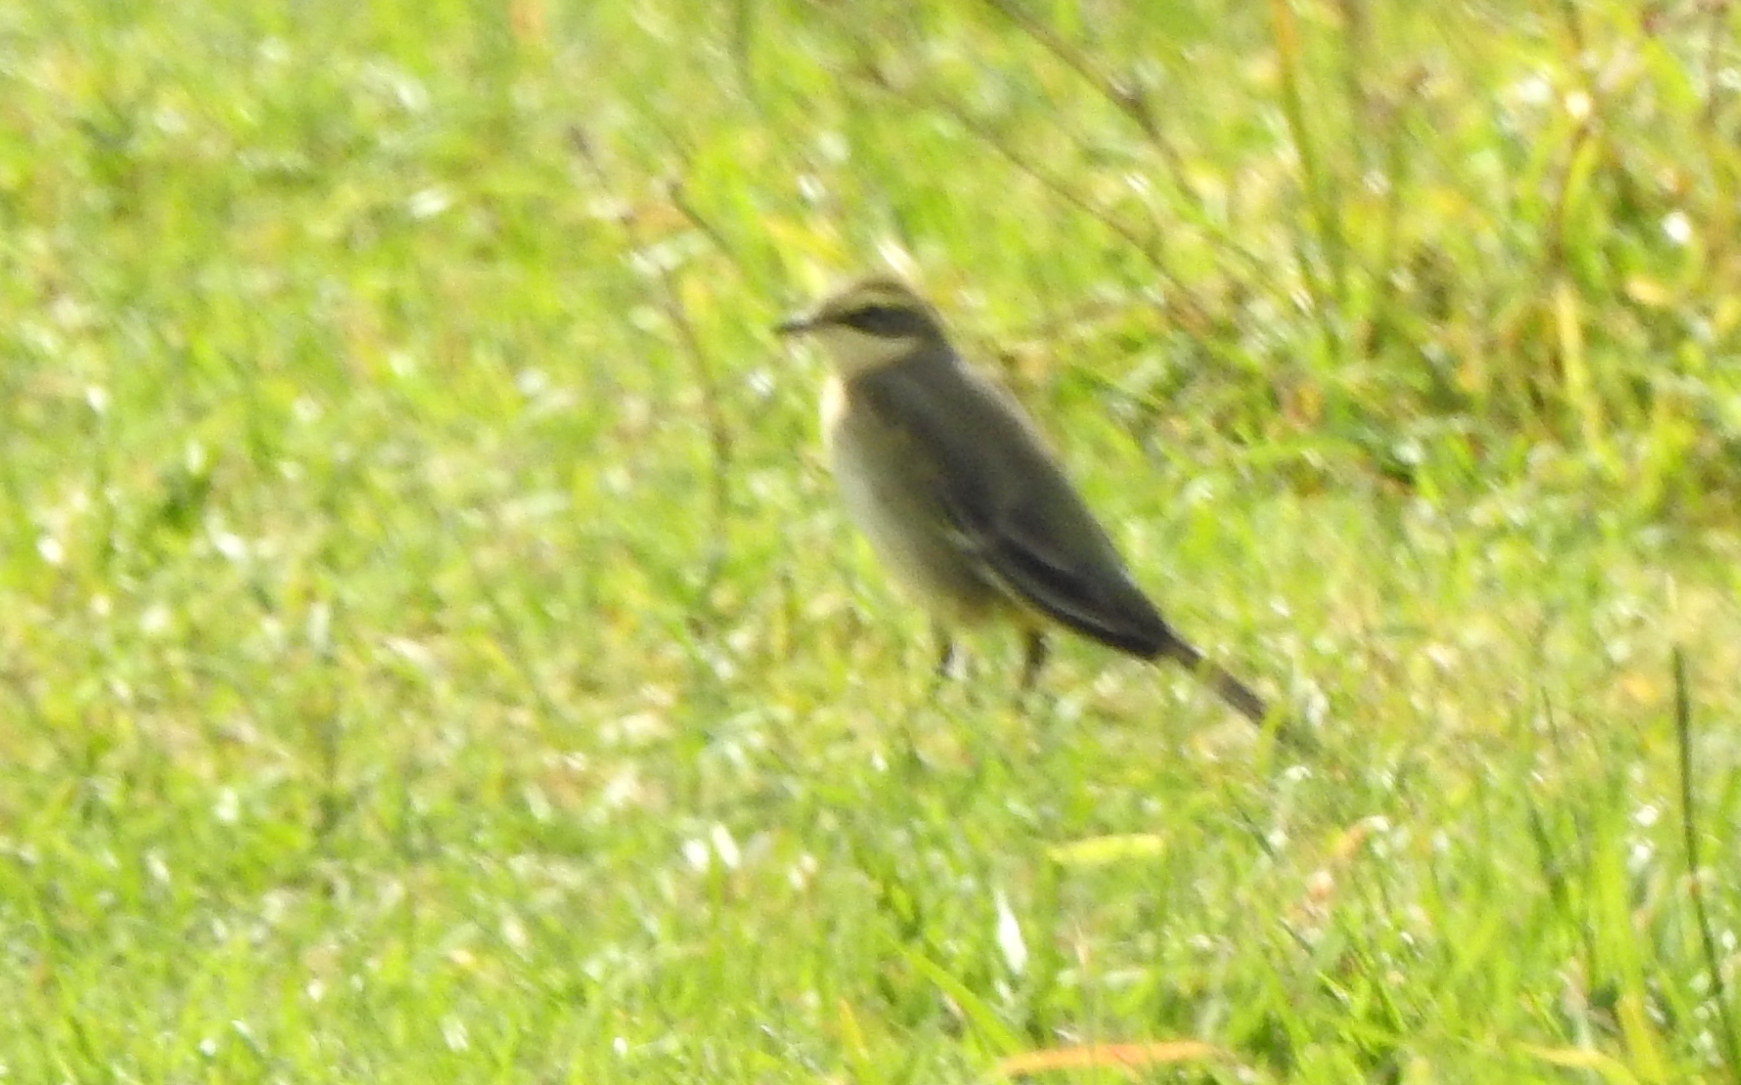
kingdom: Animalia
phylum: Chordata
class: Aves
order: Passeriformes
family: Motacillidae
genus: Motacilla
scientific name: Motacilla tschutschensis
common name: Eastern yellow wagtail
